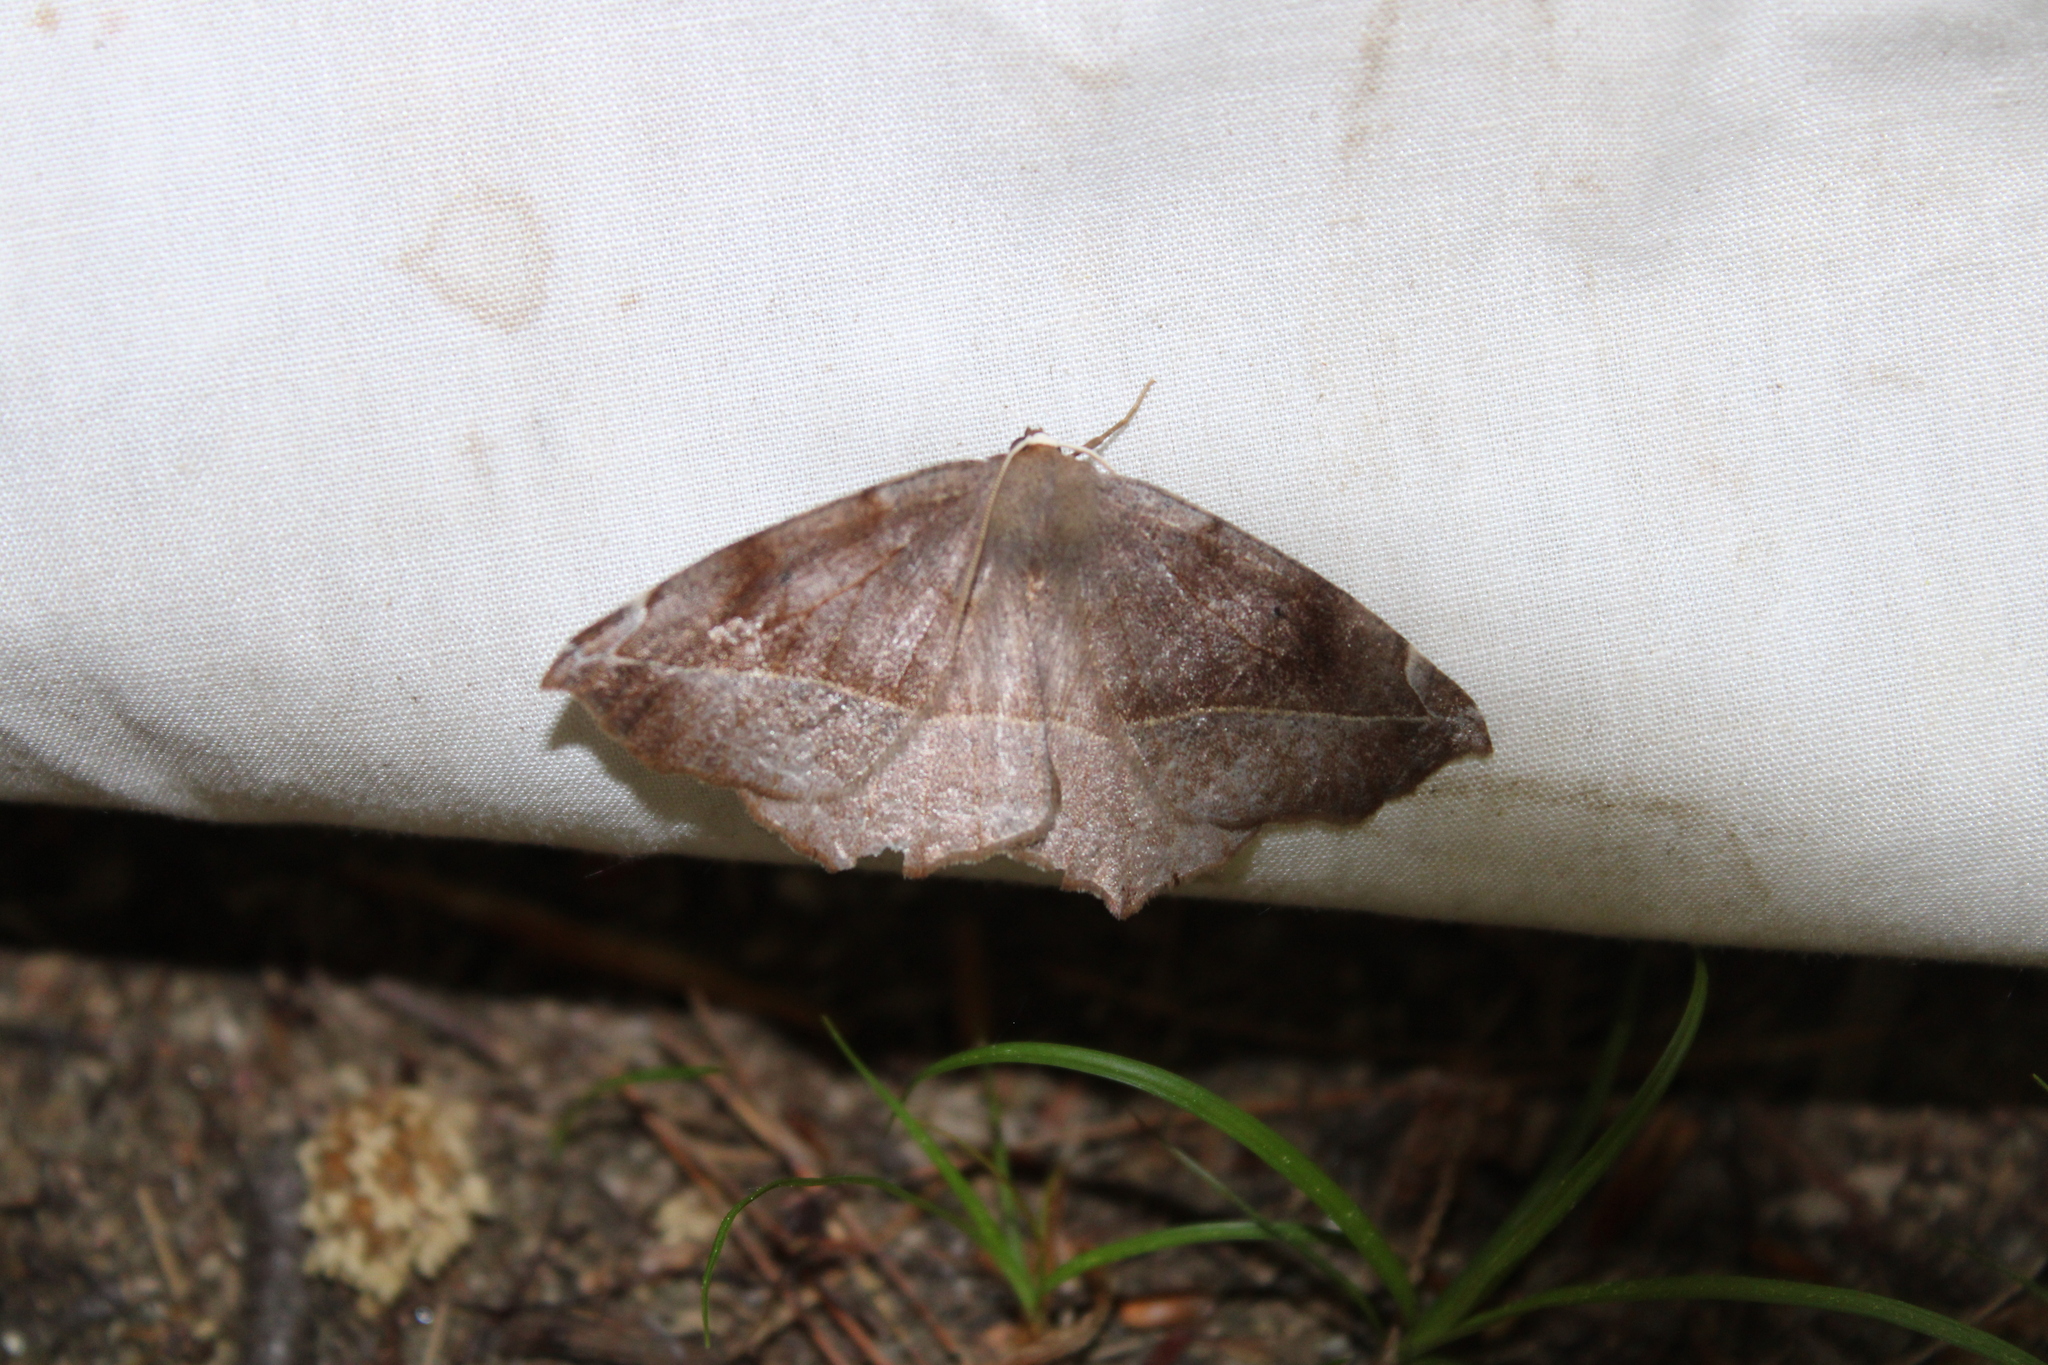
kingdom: Animalia
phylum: Arthropoda
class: Insecta
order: Lepidoptera
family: Geometridae
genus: Eutrapela
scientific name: Eutrapela clemataria
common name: Curved-toothed geometer
